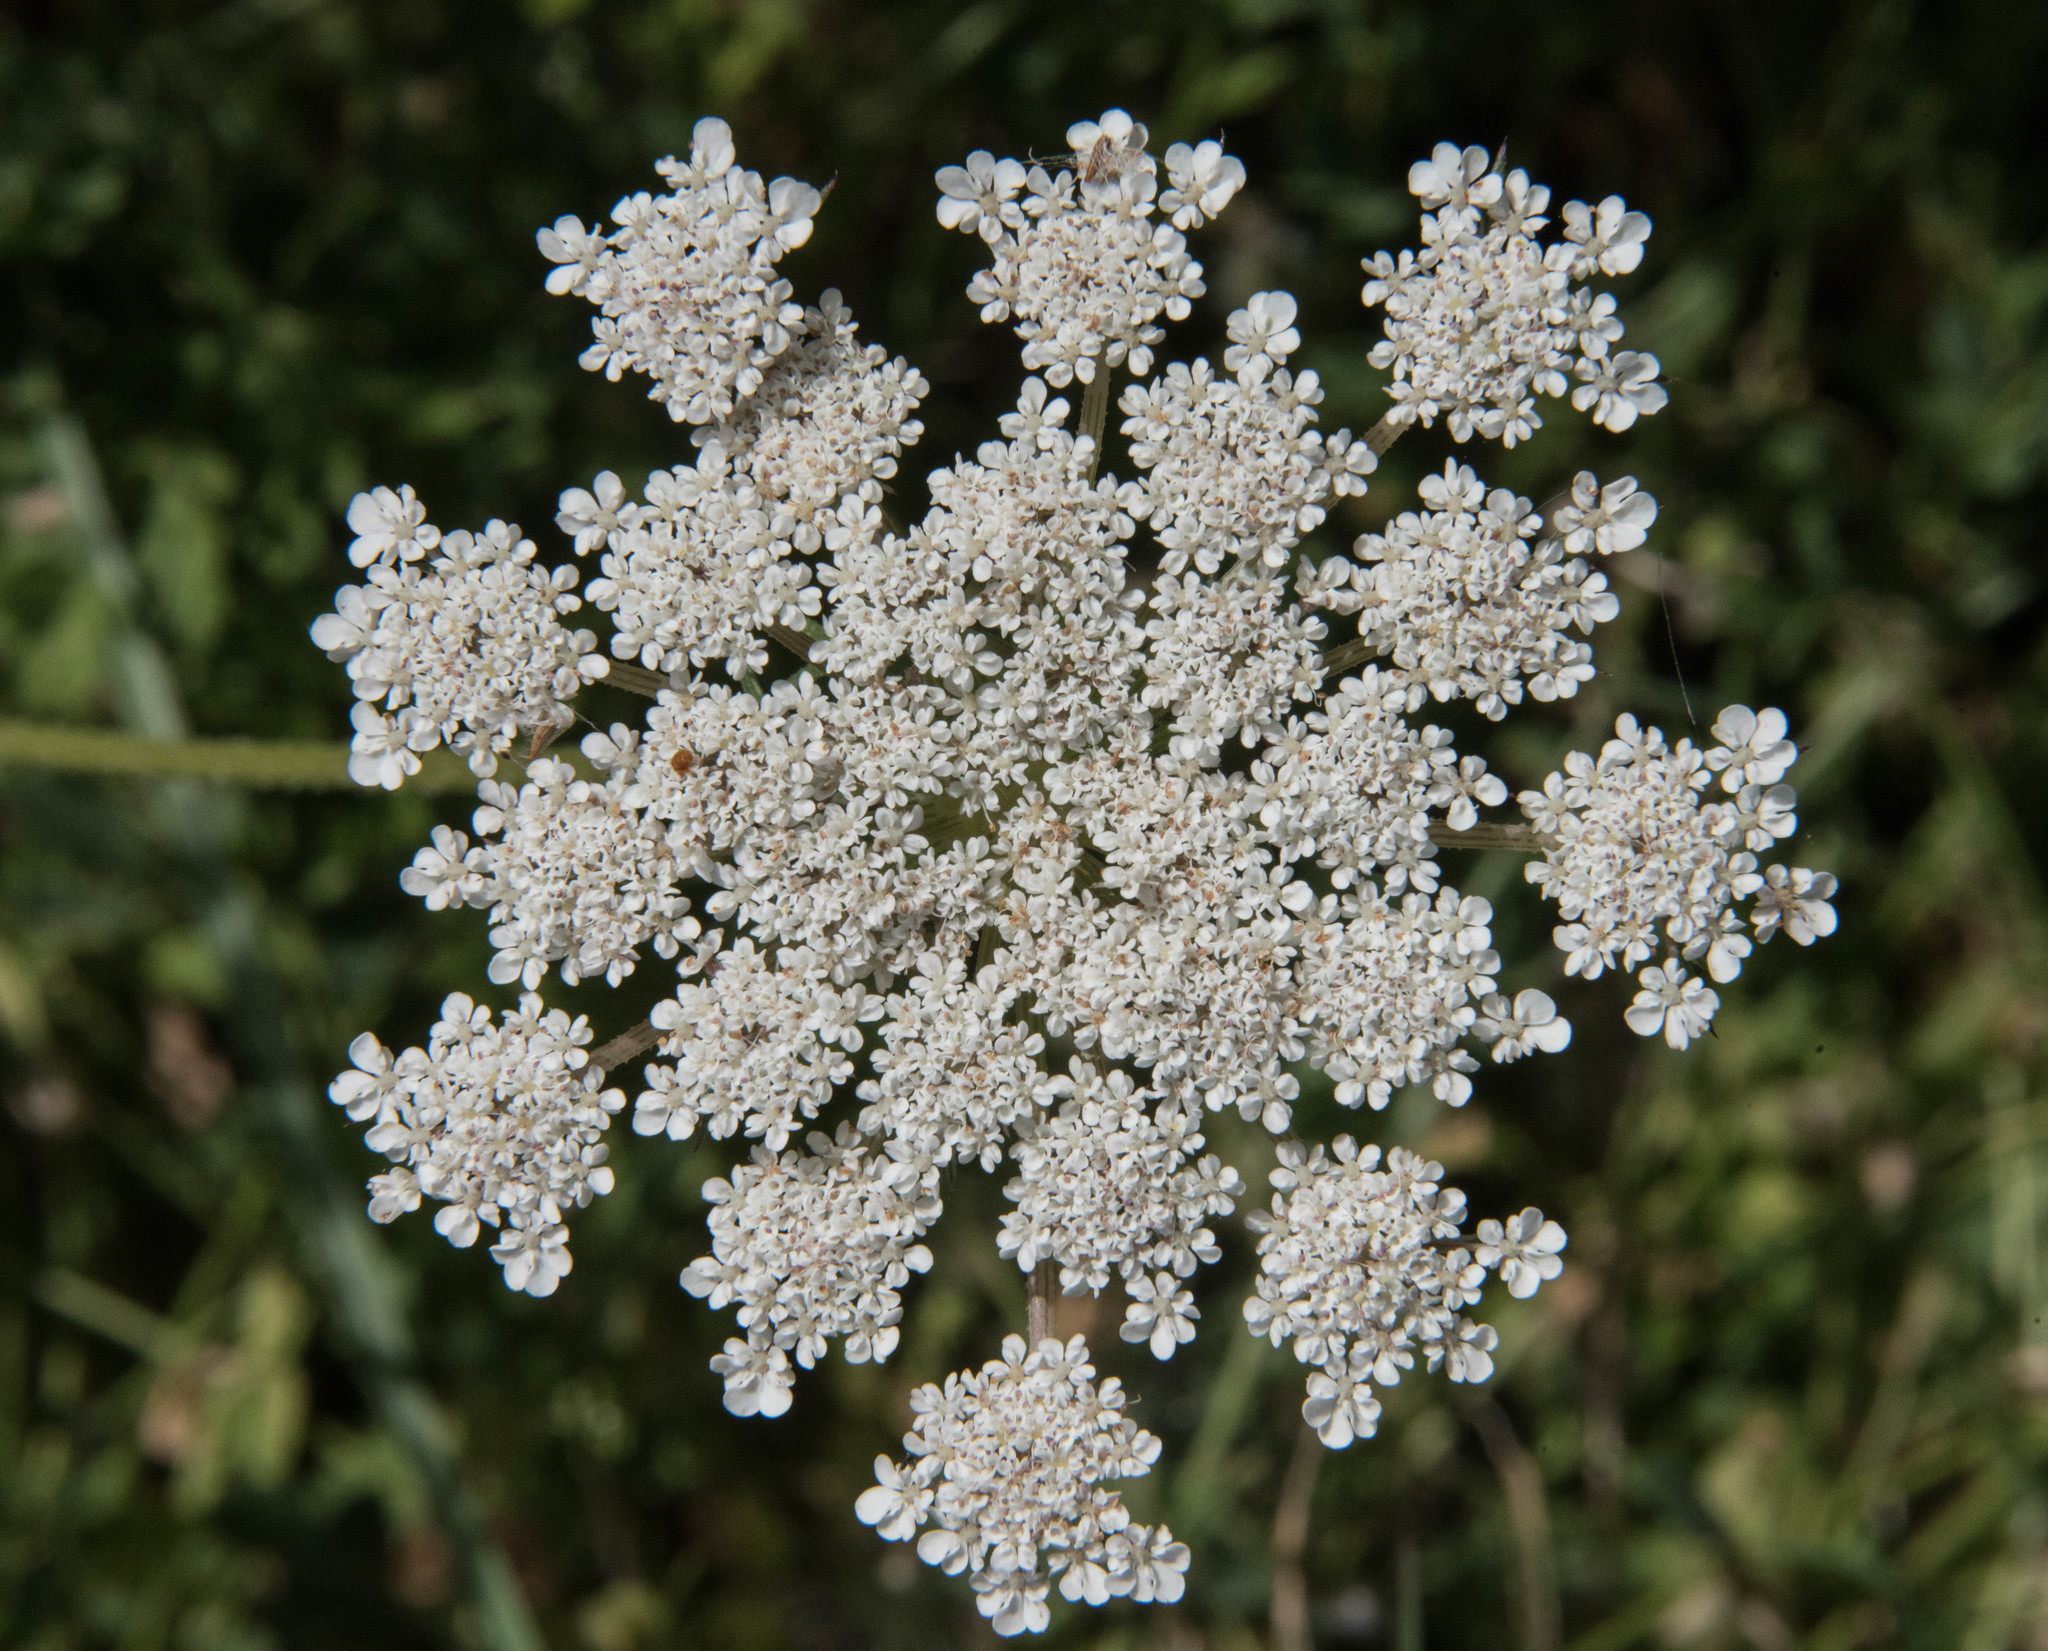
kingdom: Plantae
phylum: Tracheophyta
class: Magnoliopsida
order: Apiales
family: Apiaceae
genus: Daucus
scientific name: Daucus carota
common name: Wild carrot
